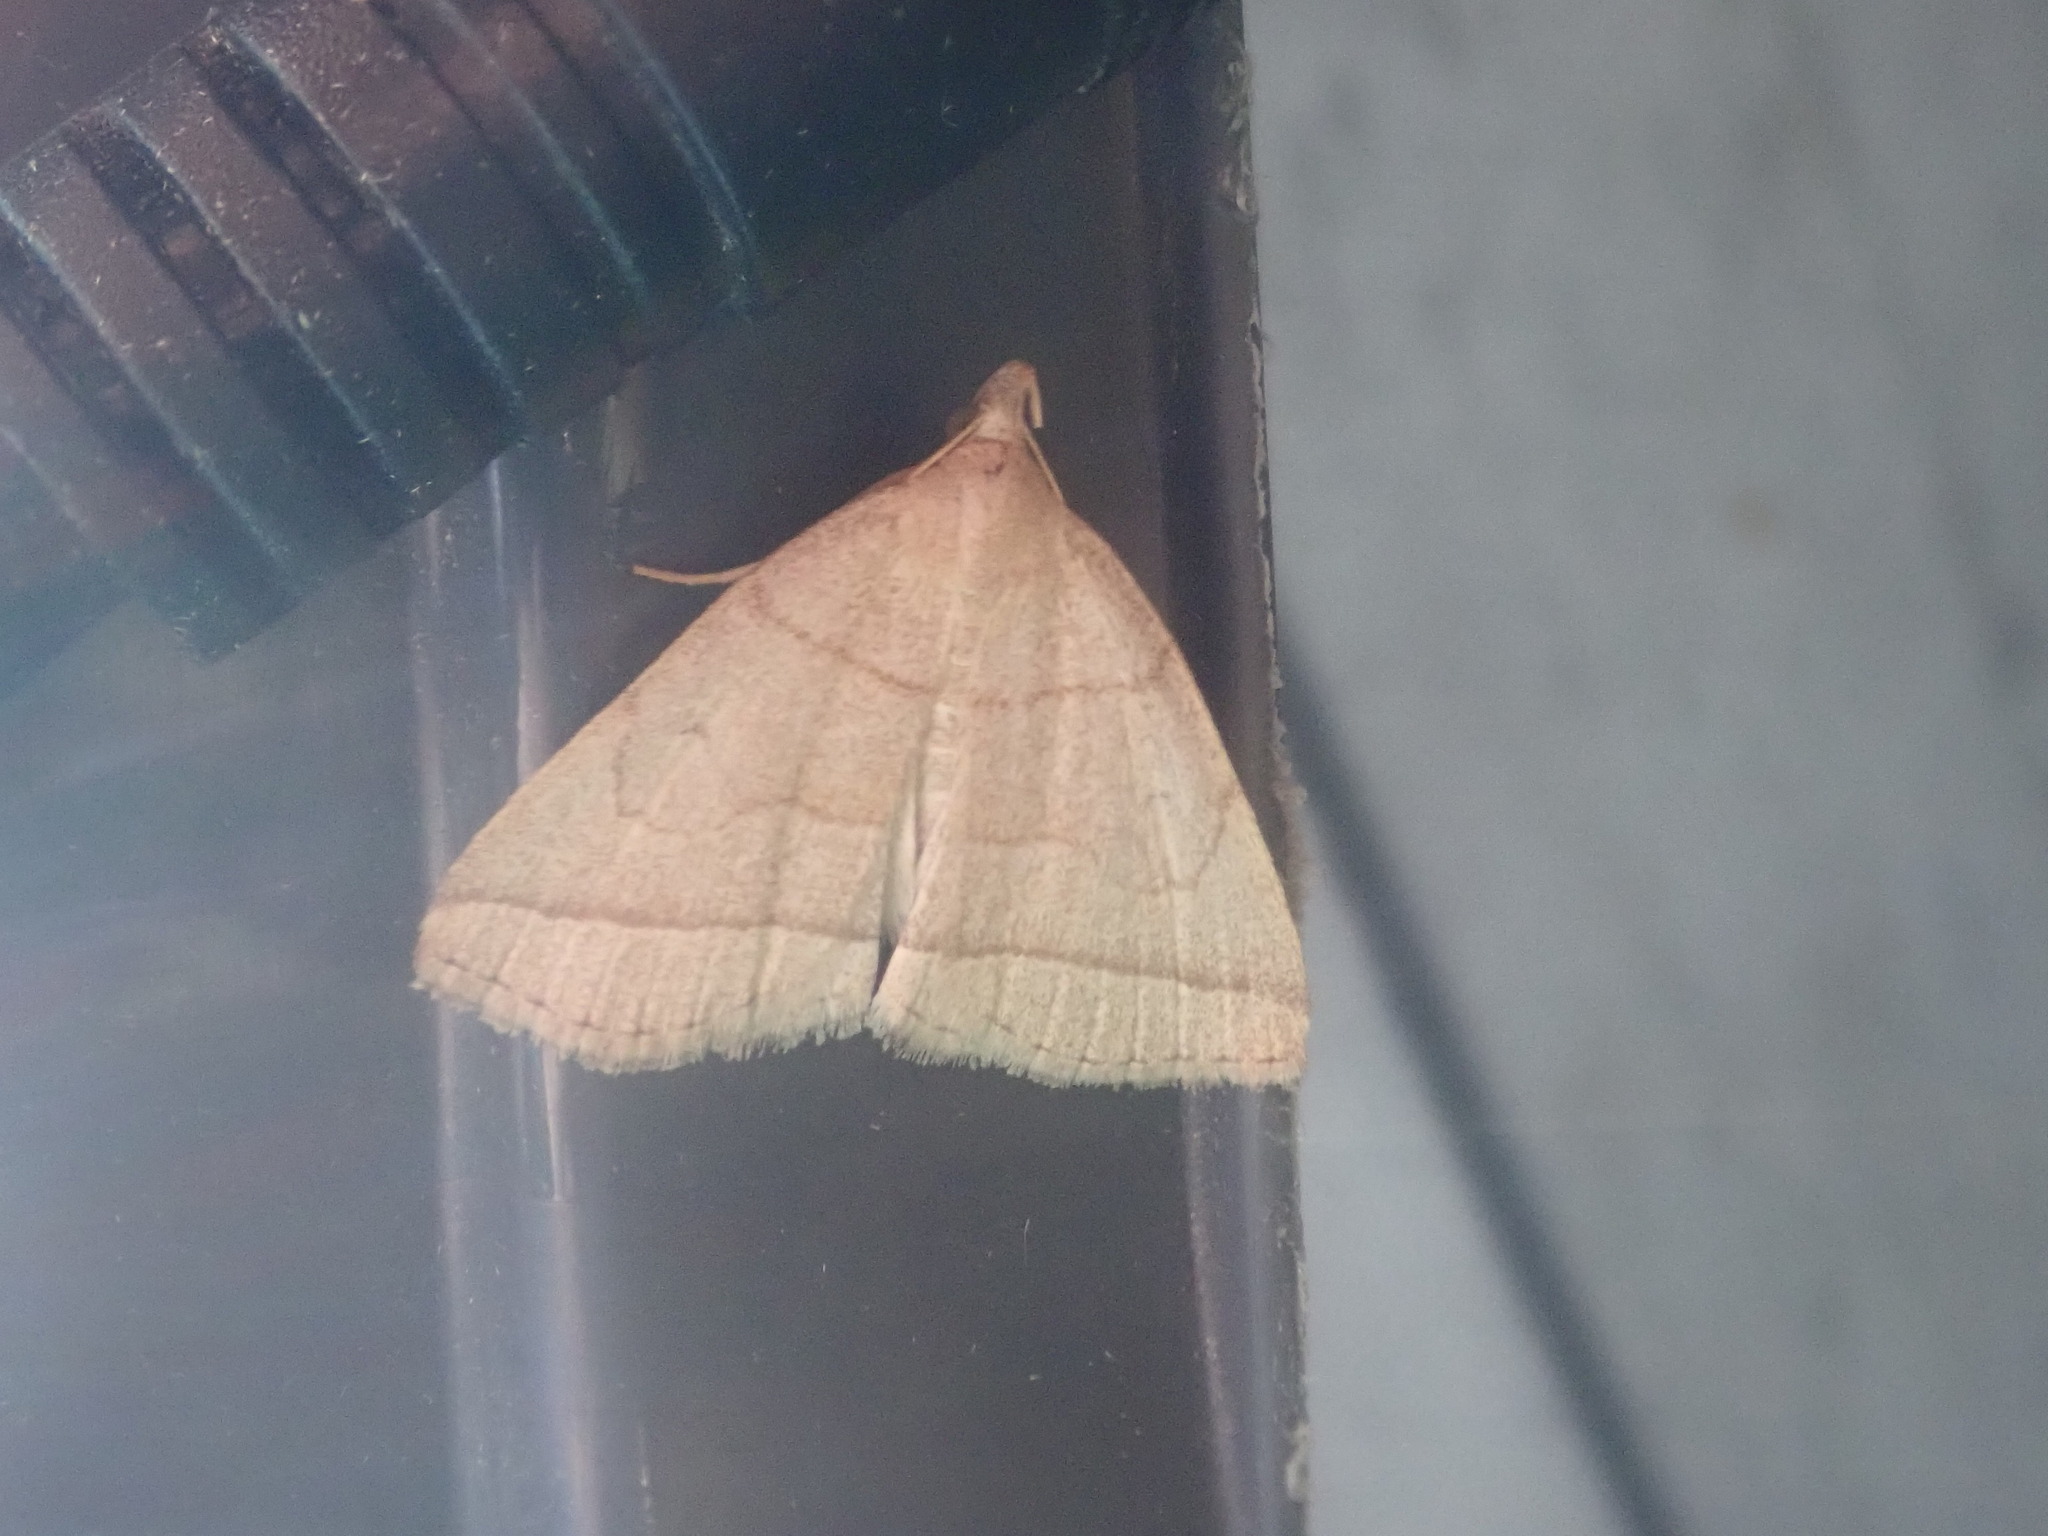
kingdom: Animalia
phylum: Arthropoda
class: Insecta
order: Lepidoptera
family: Erebidae
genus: Zanclognatha
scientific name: Zanclognatha cruralis
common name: Early fan-foot
